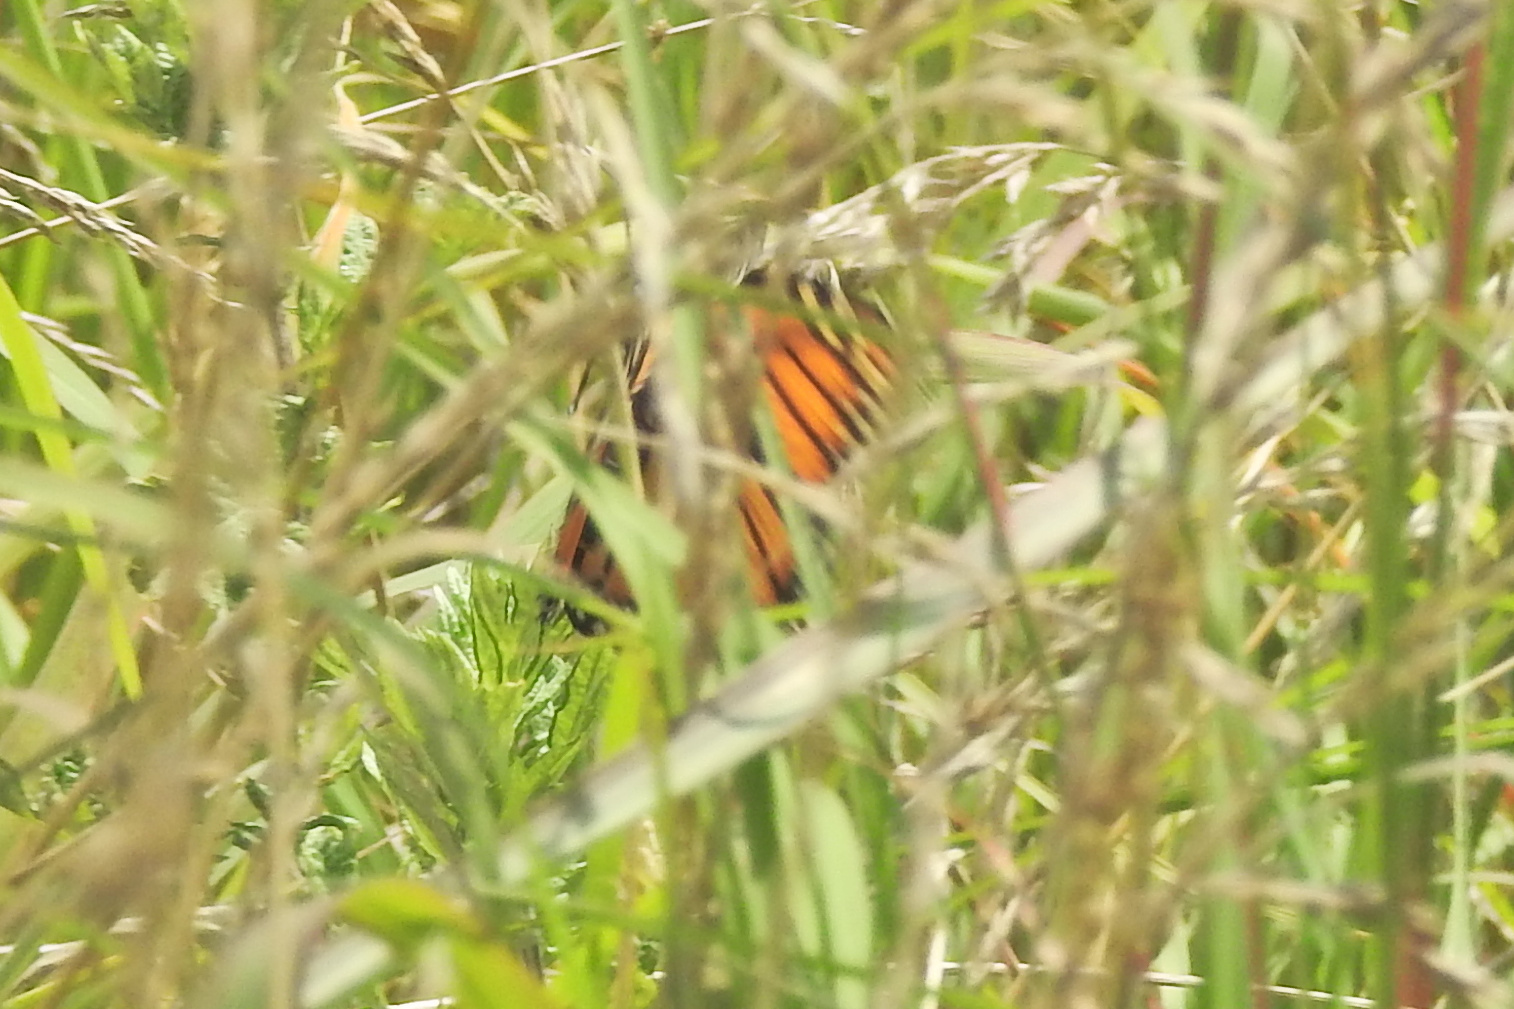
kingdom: Animalia
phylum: Arthropoda
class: Insecta
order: Lepidoptera
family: Nymphalidae
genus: Danaus
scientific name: Danaus plexippus
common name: Monarch
